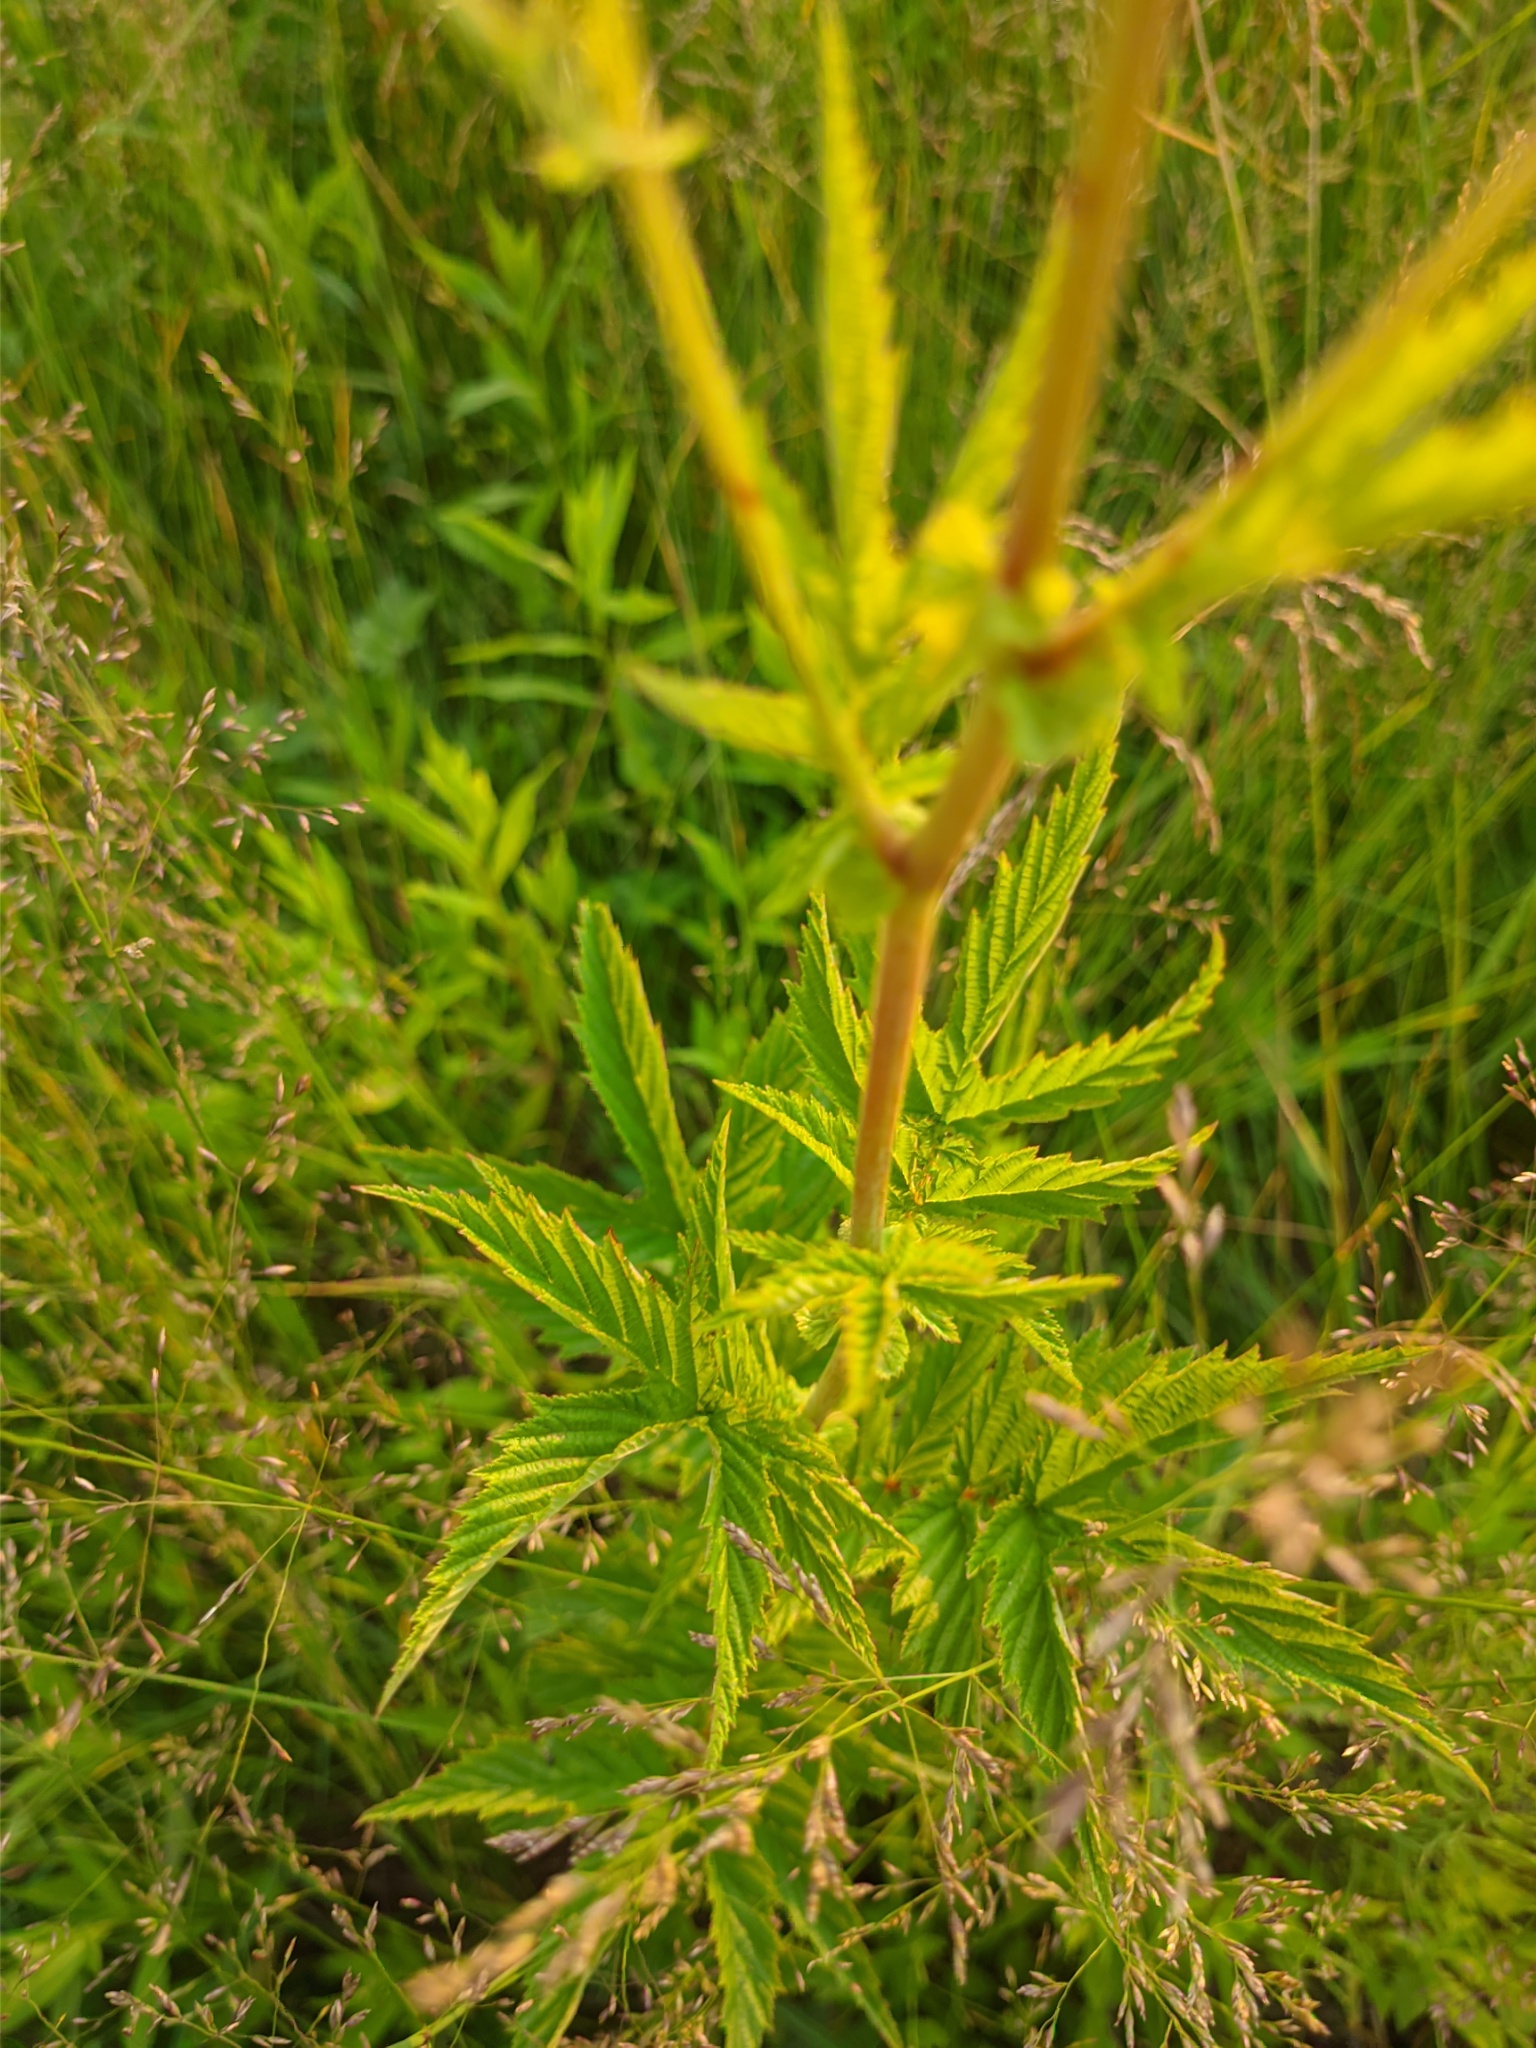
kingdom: Plantae
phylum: Tracheophyta
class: Magnoliopsida
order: Rosales
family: Rosaceae
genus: Filipendula
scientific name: Filipendula ulmaria
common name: Meadowsweet
